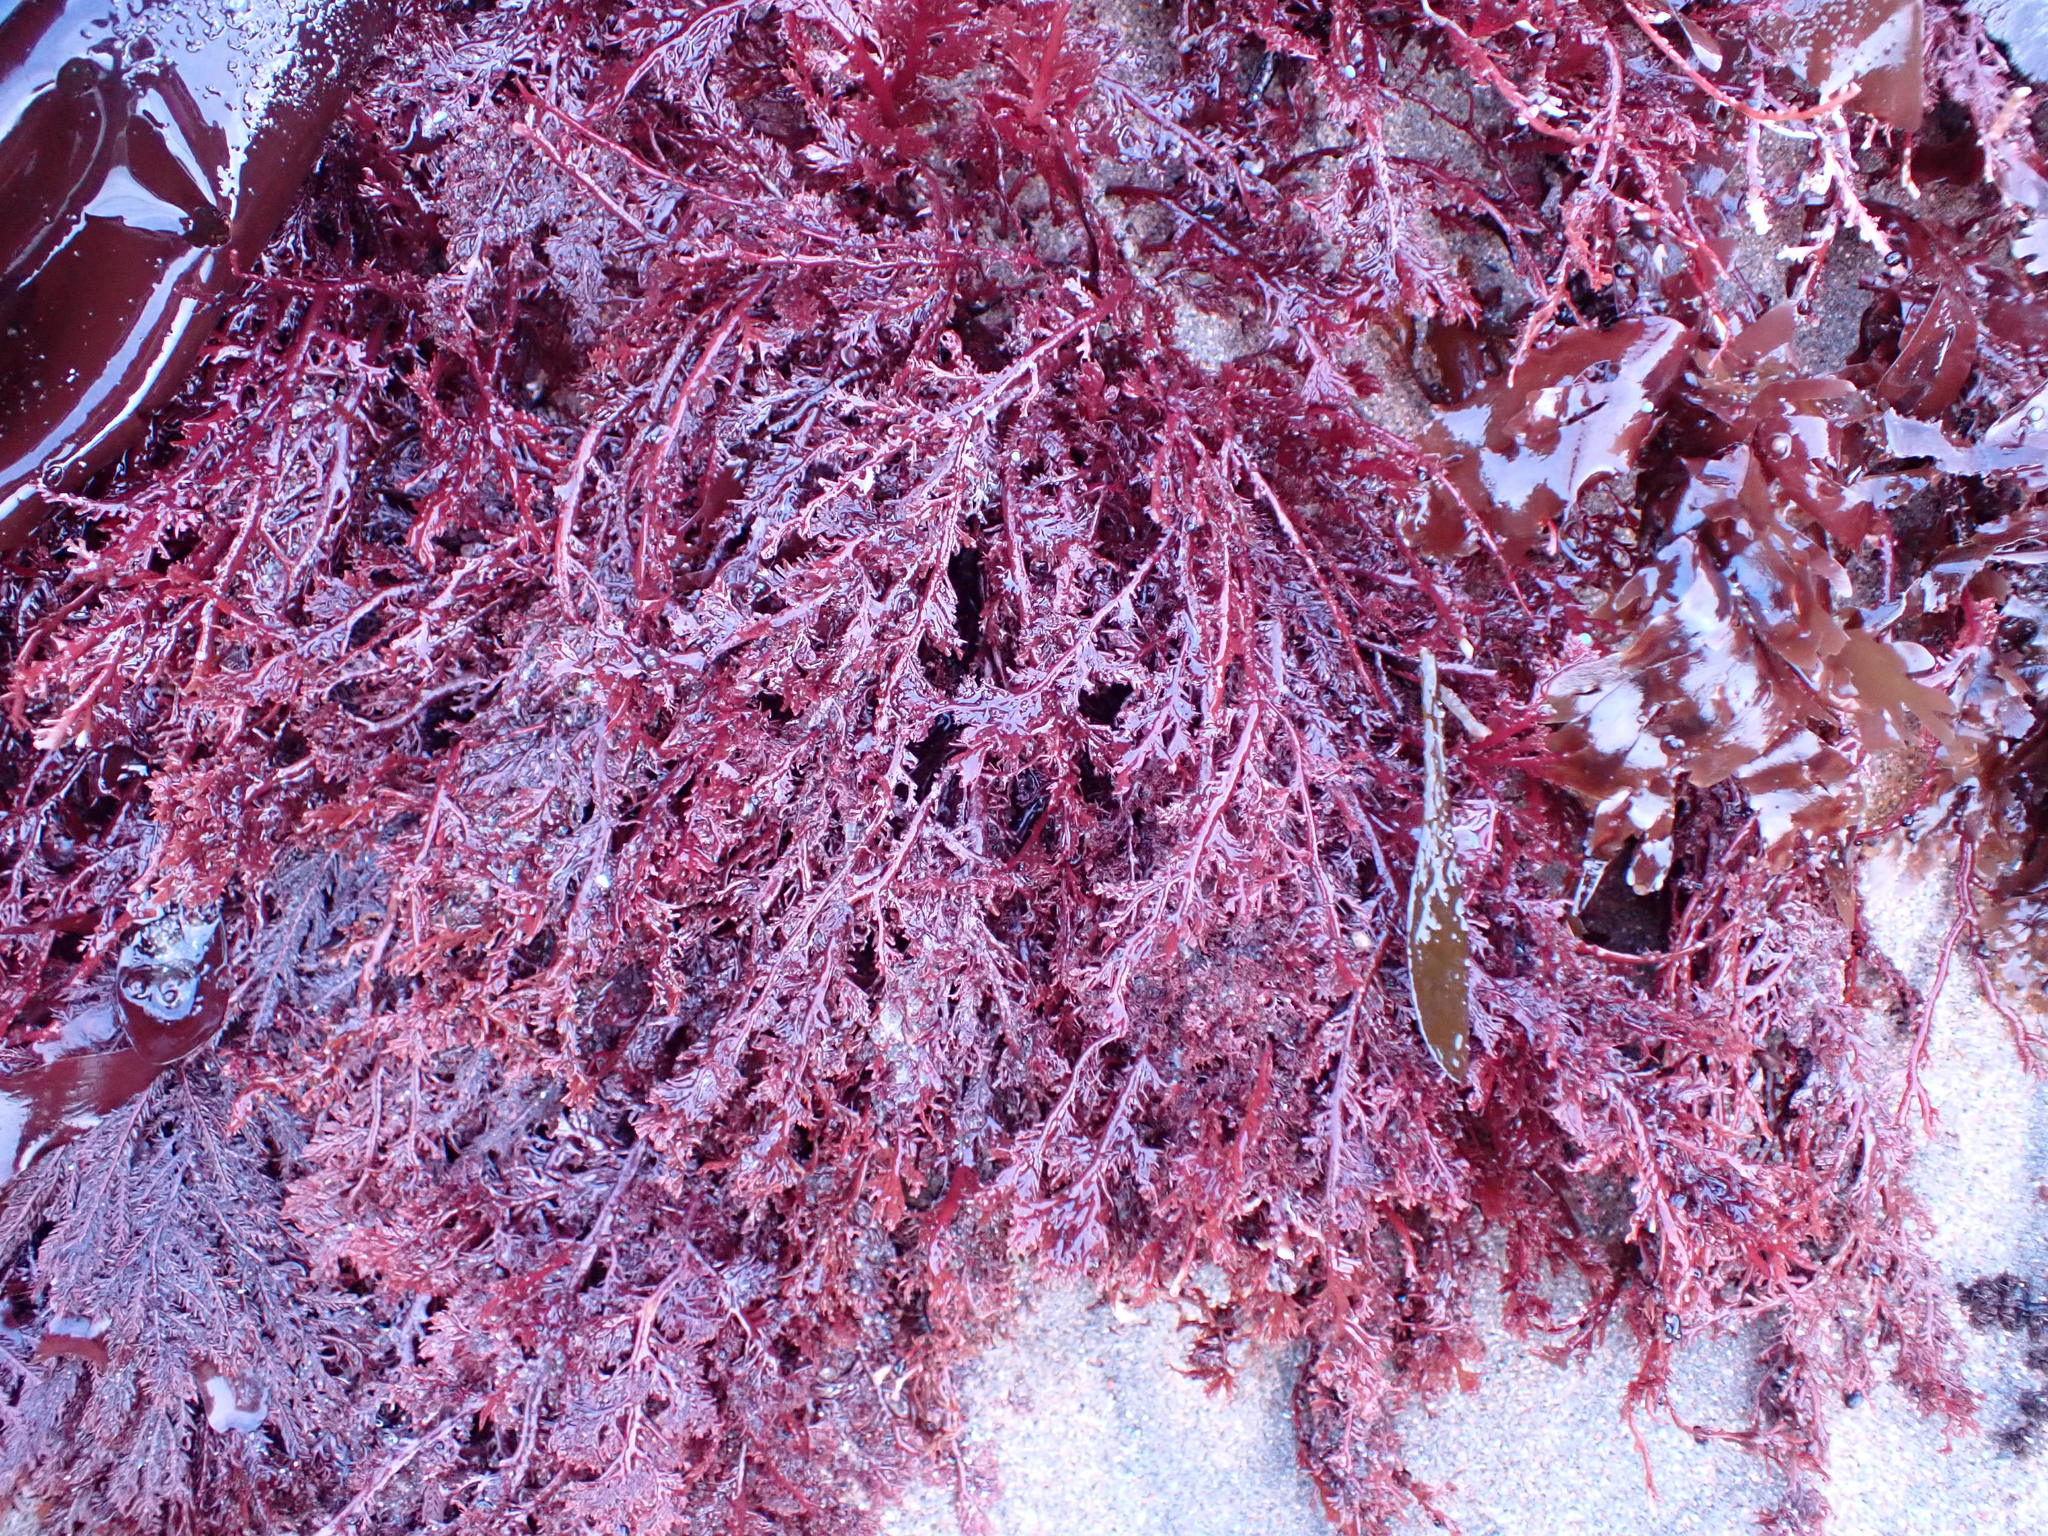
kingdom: Plantae
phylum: Rhodophyta
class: Florideophyceae
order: Plocamiales
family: Plocamiaceae
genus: Plocamium
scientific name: Plocamium cartilagineum
